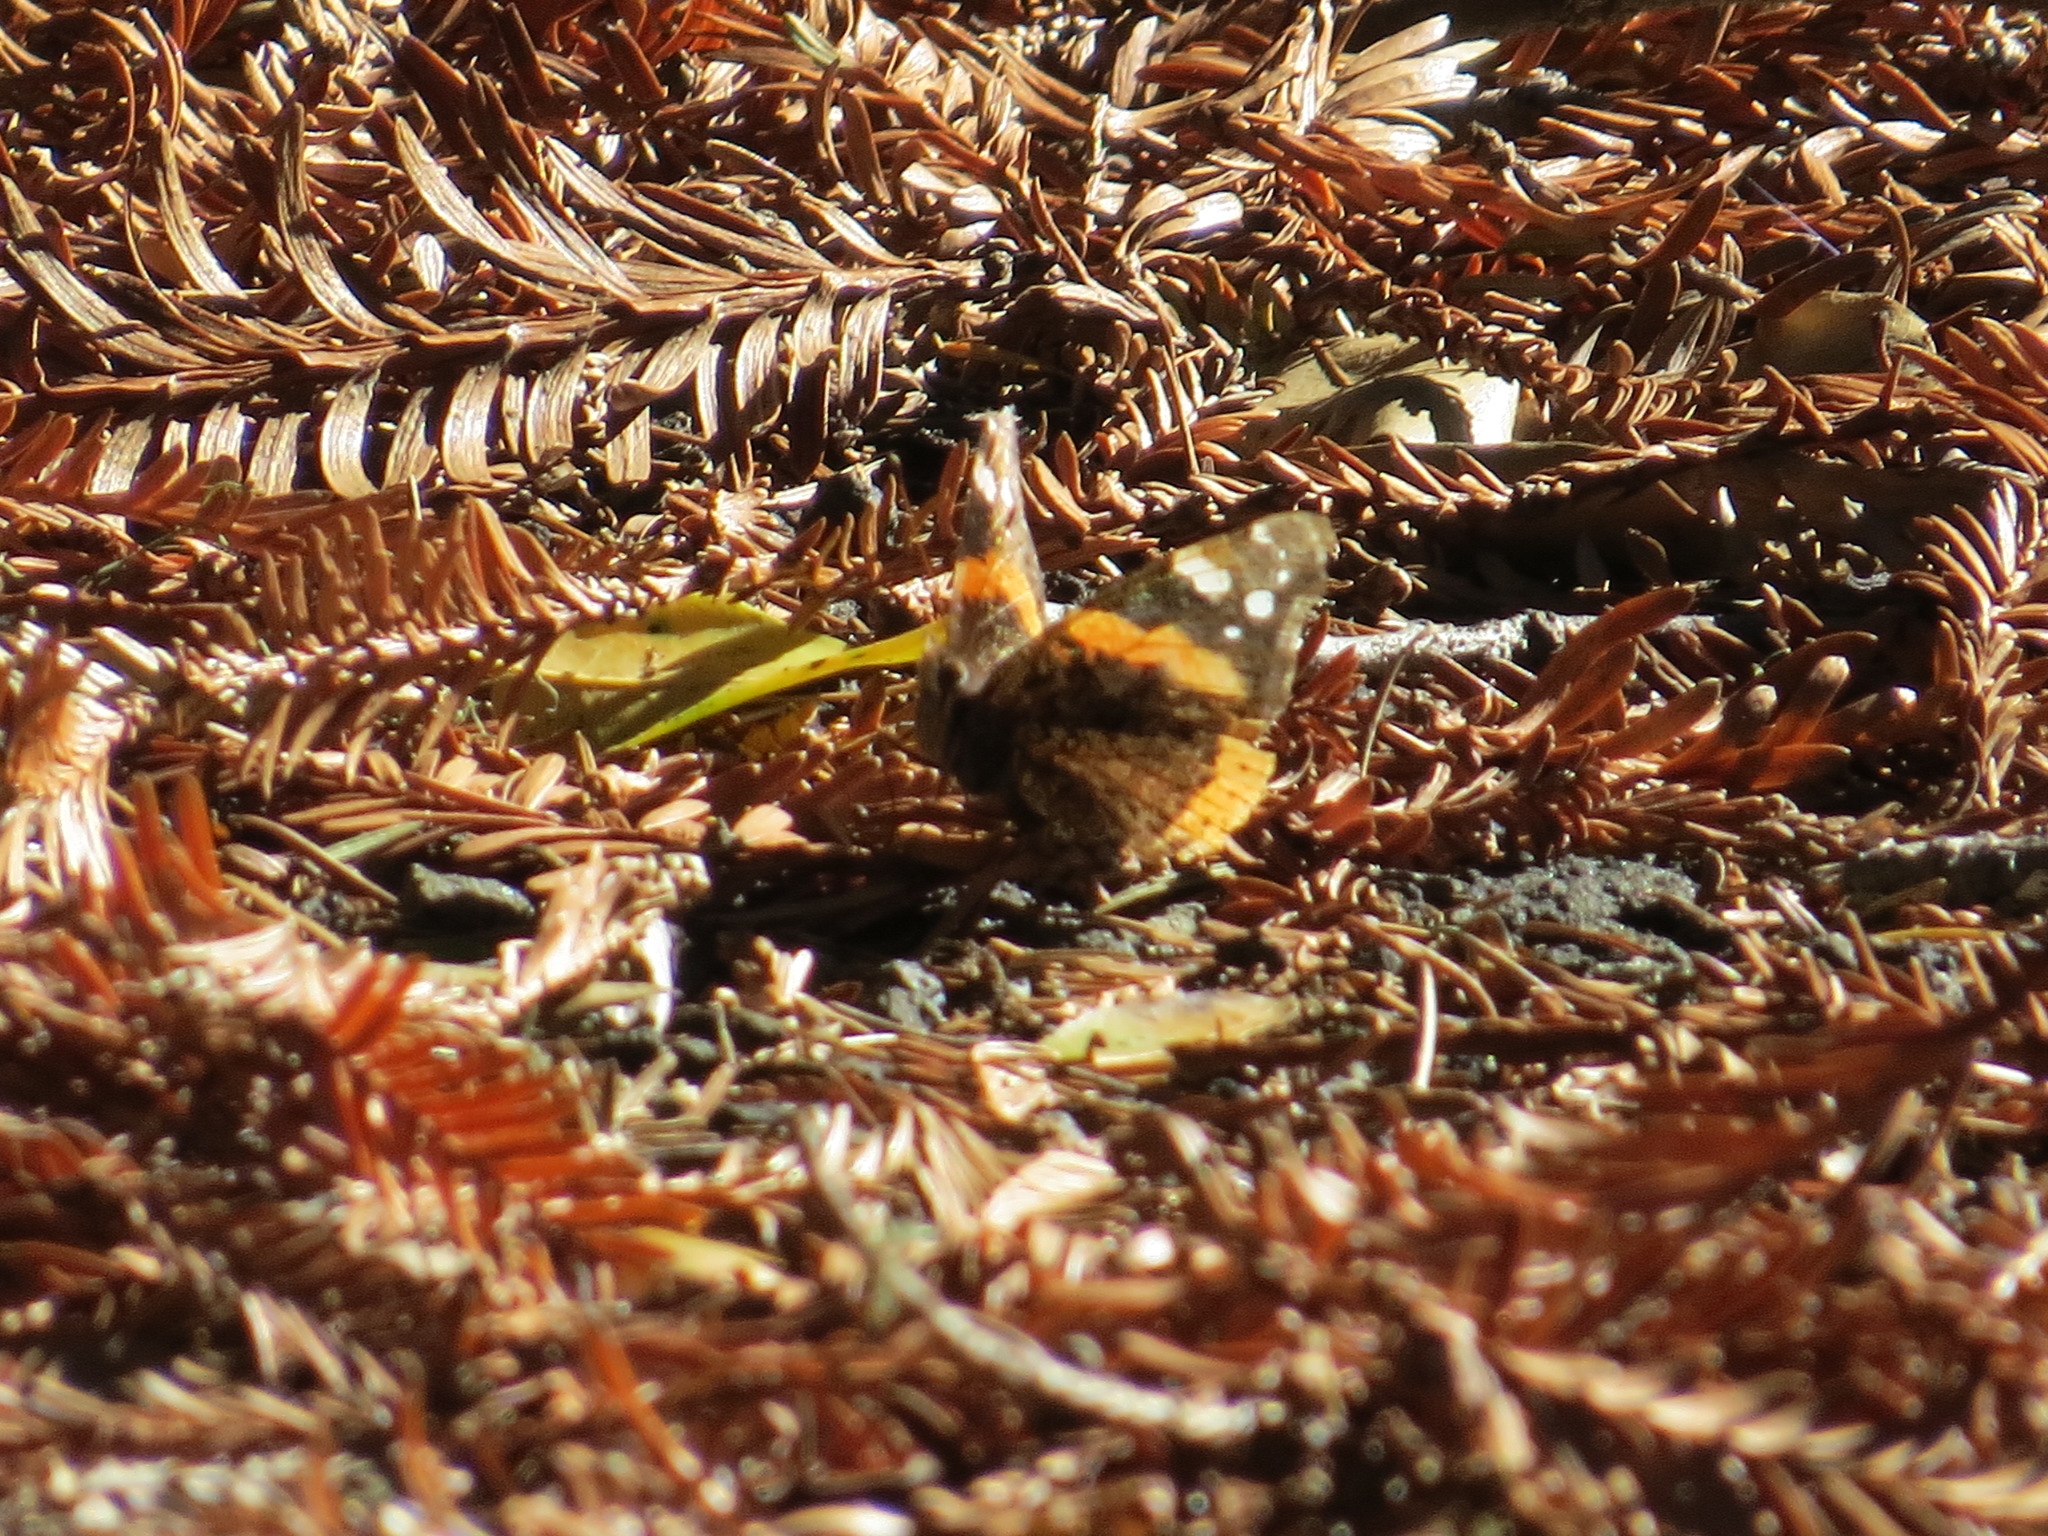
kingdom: Animalia
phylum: Arthropoda
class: Insecta
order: Lepidoptera
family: Nymphalidae
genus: Vanessa
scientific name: Vanessa atalanta
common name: Red admiral
